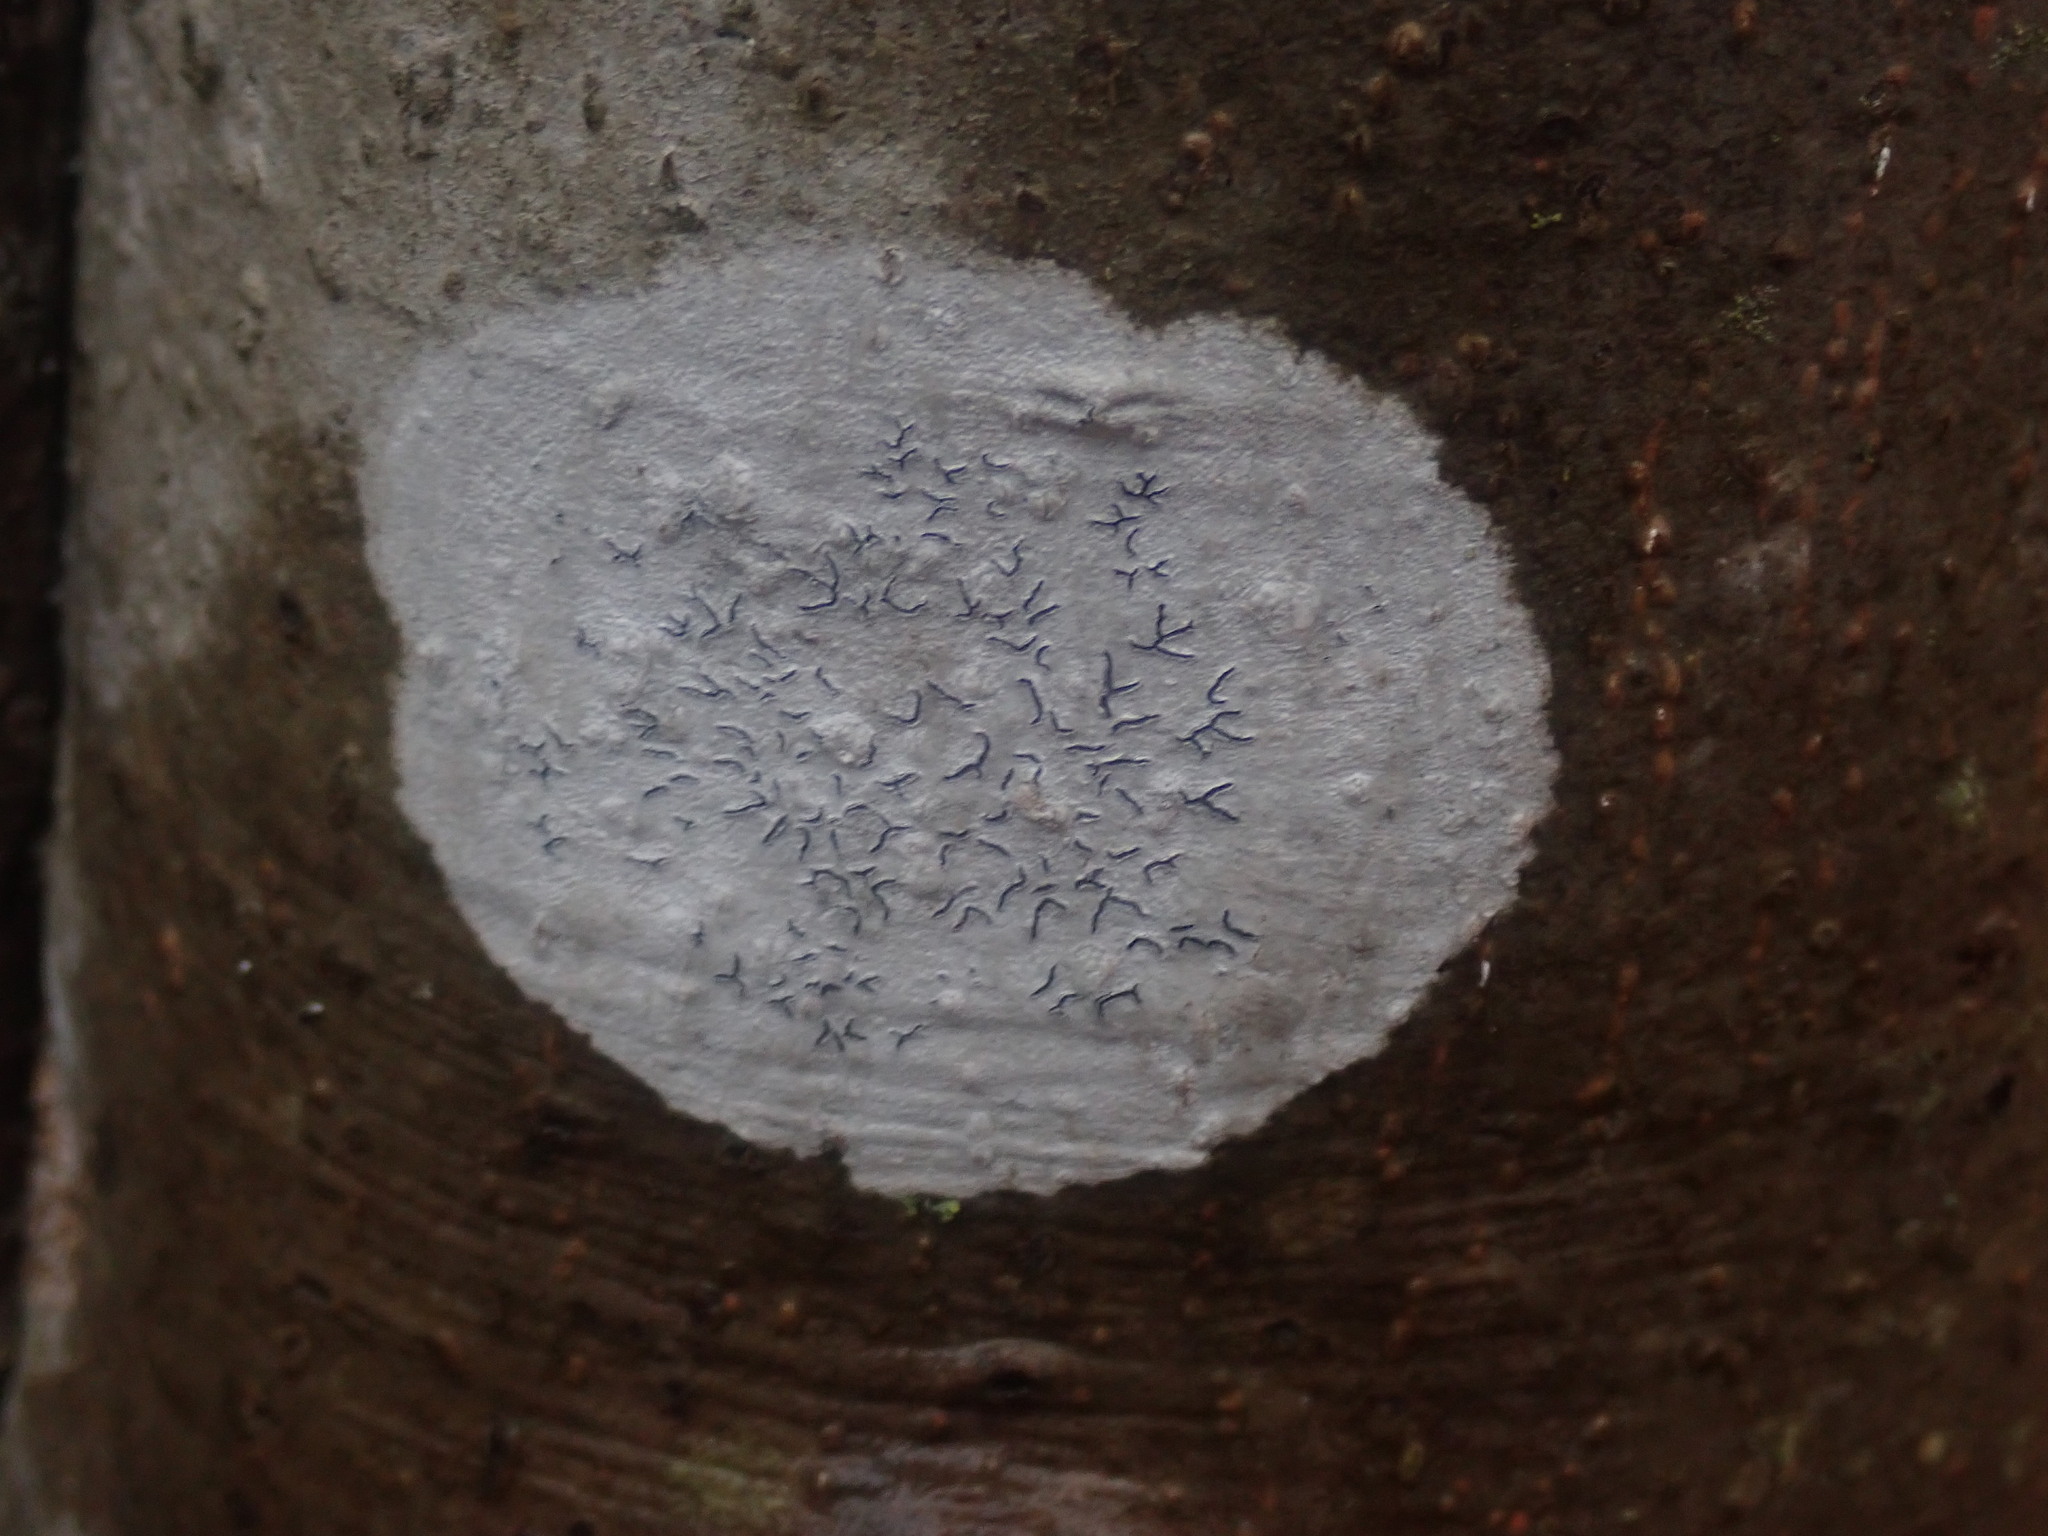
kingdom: Fungi
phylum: Ascomycota
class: Lecanoromycetes
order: Ostropales
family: Graphidaceae
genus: Graphis
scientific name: Graphis scripta
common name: Script lichen
